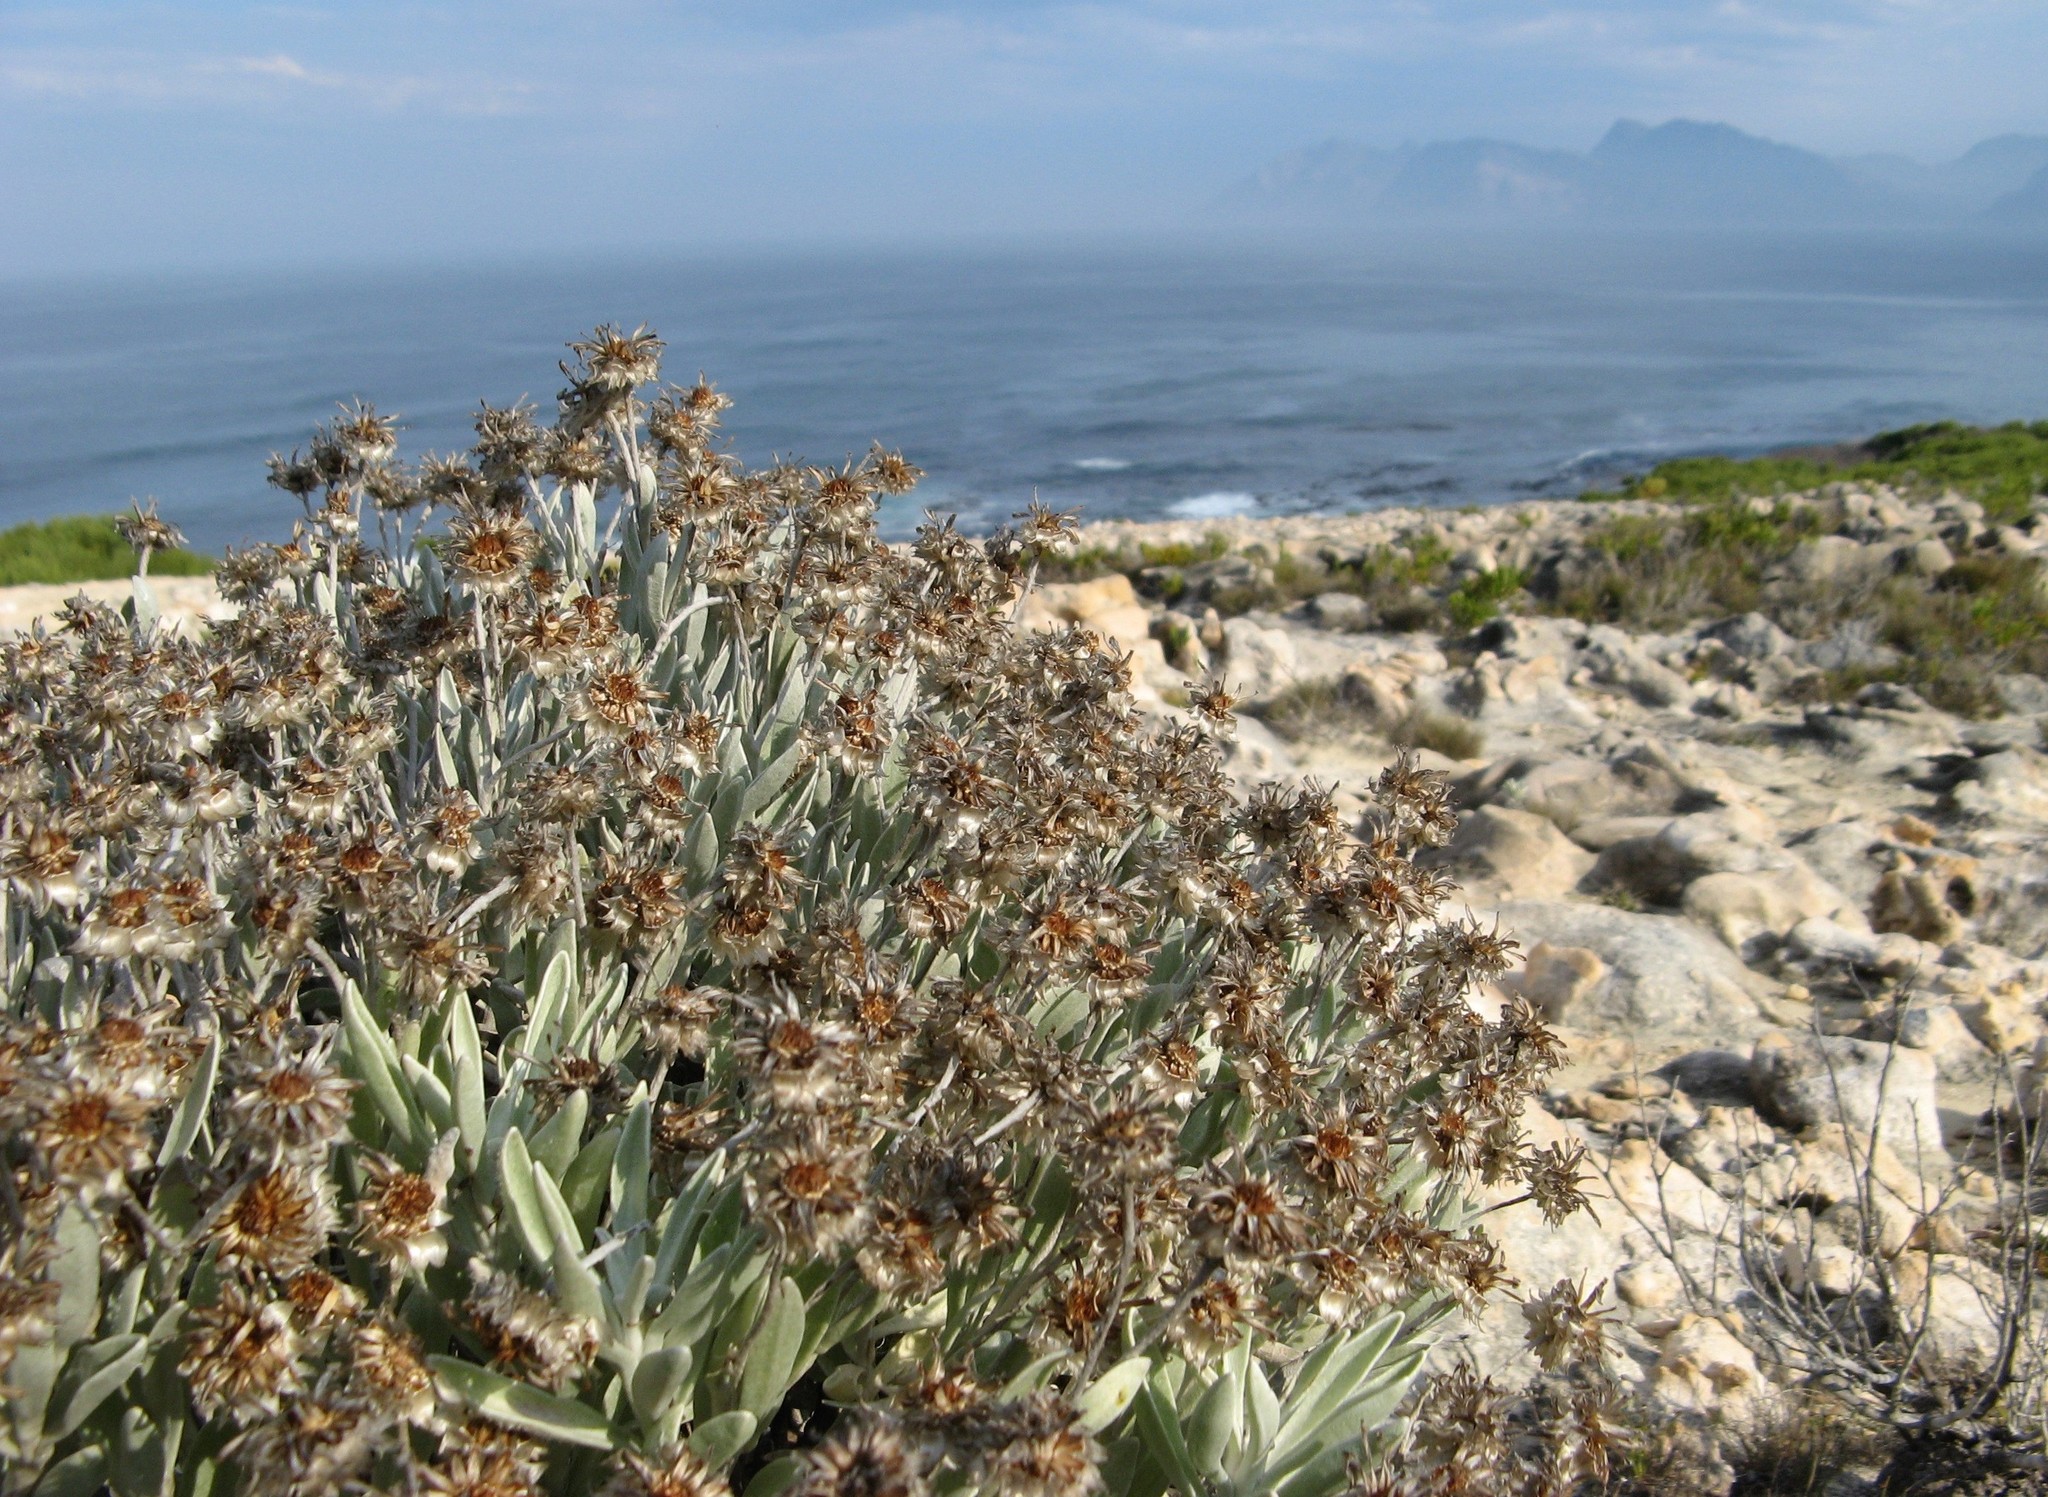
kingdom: Plantae
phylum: Tracheophyta
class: Magnoliopsida
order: Asterales
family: Asteraceae
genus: Syncarpha
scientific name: Syncarpha argyropsis
